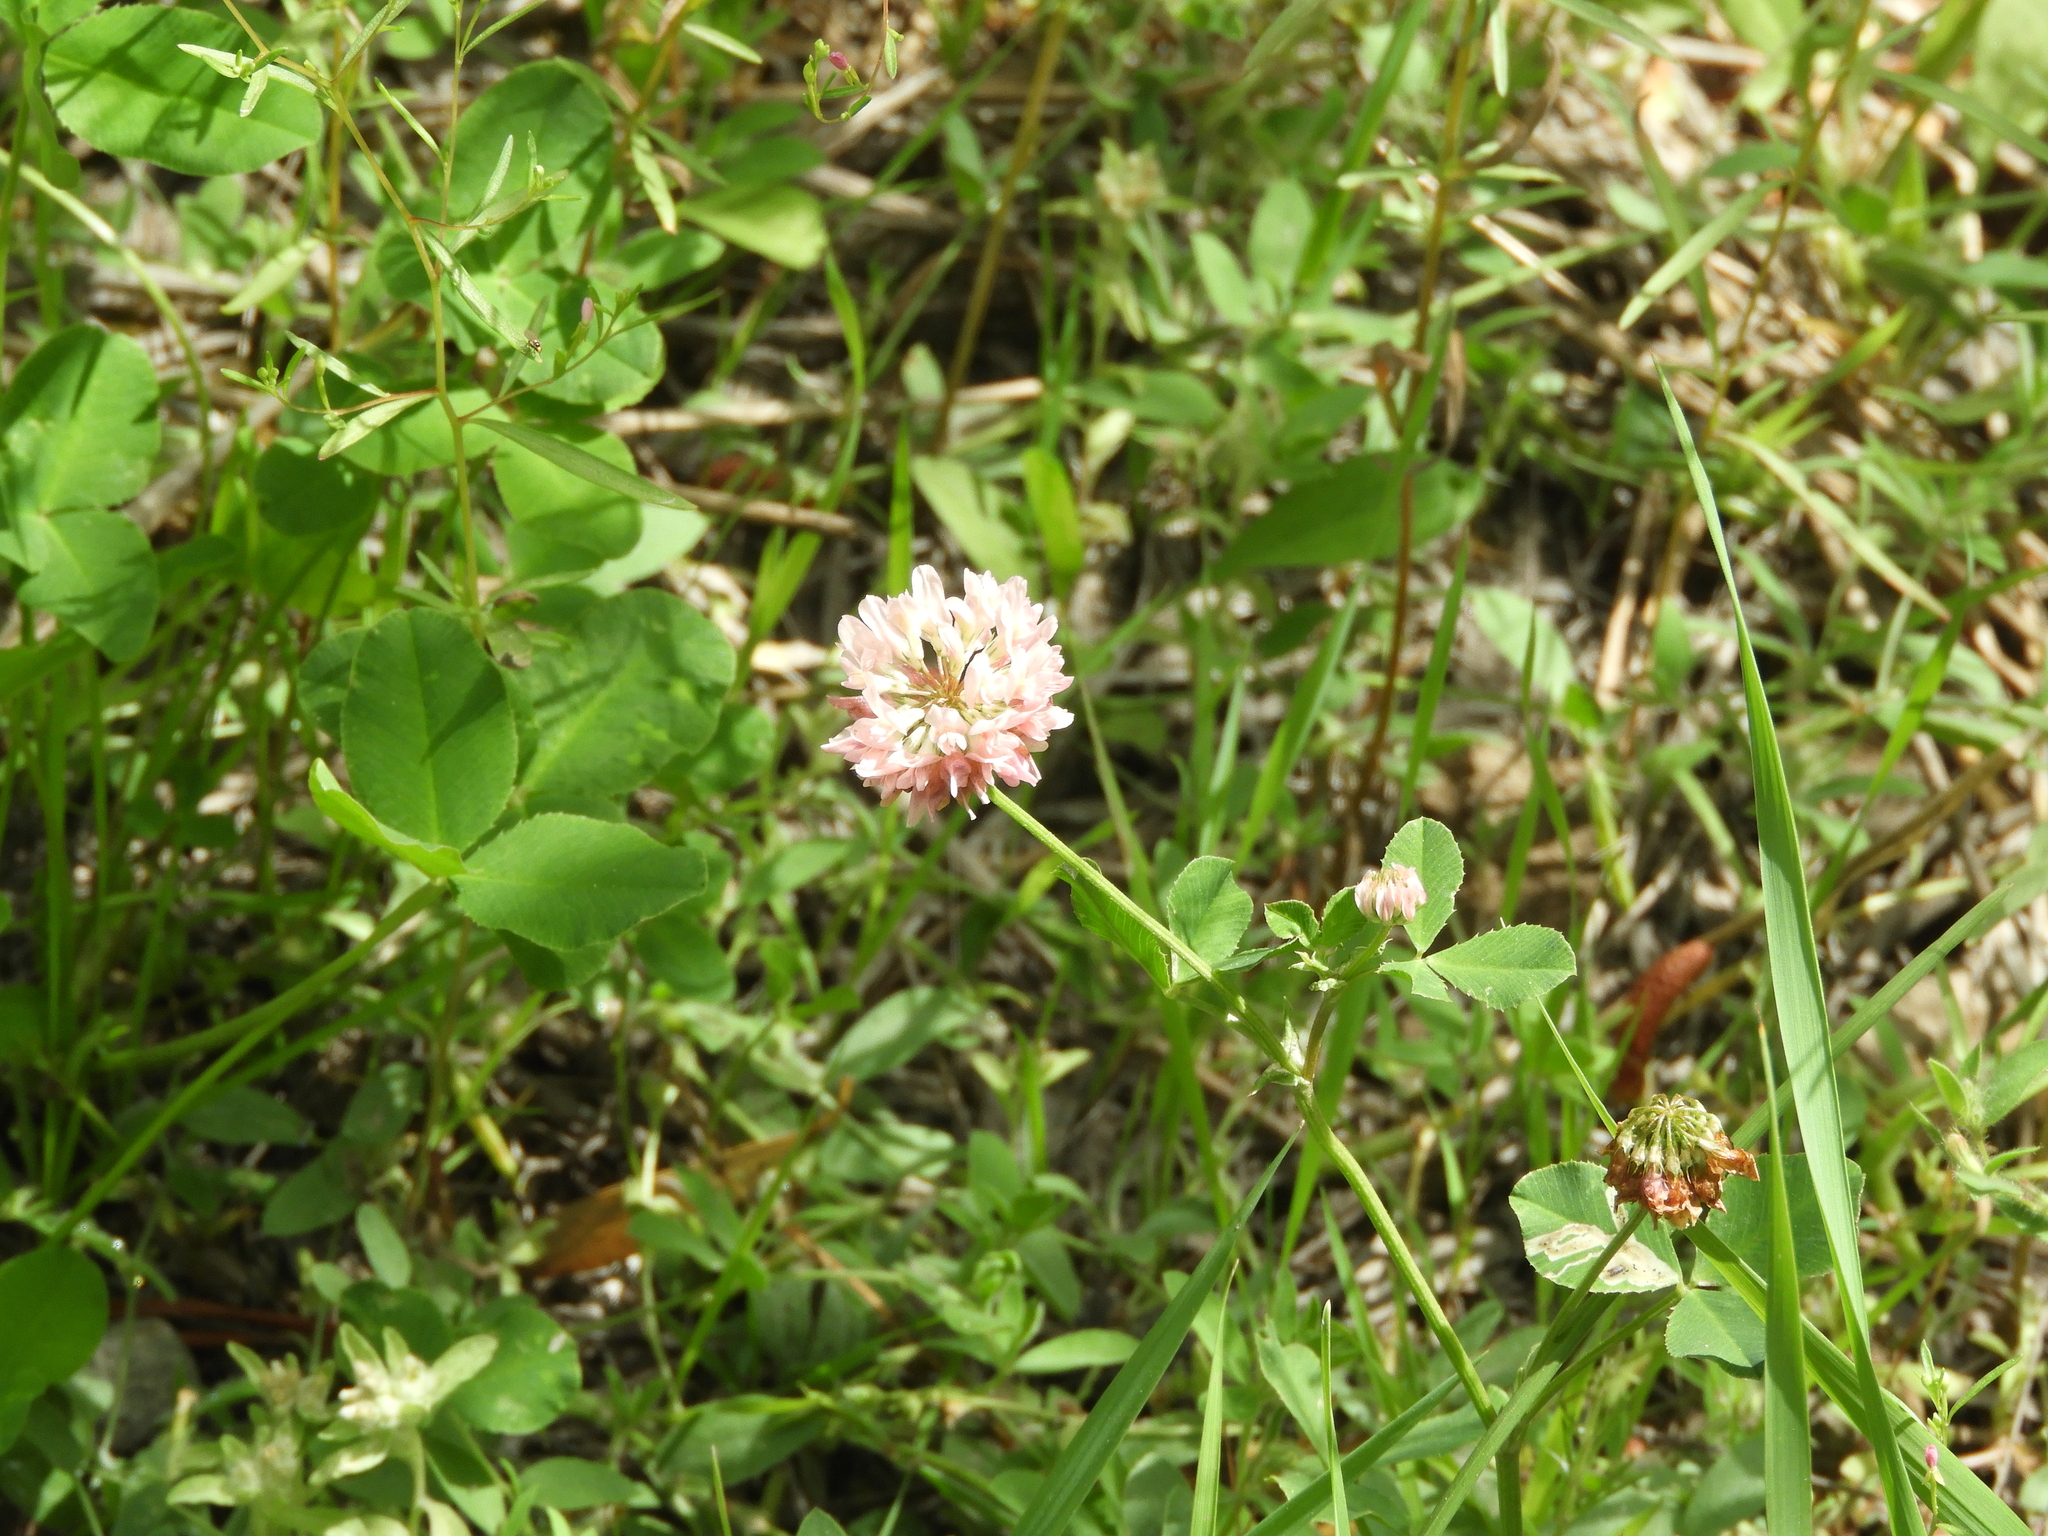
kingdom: Plantae
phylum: Tracheophyta
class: Magnoliopsida
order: Fabales
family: Fabaceae
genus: Trifolium
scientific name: Trifolium hybridum
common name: Alsike clover
